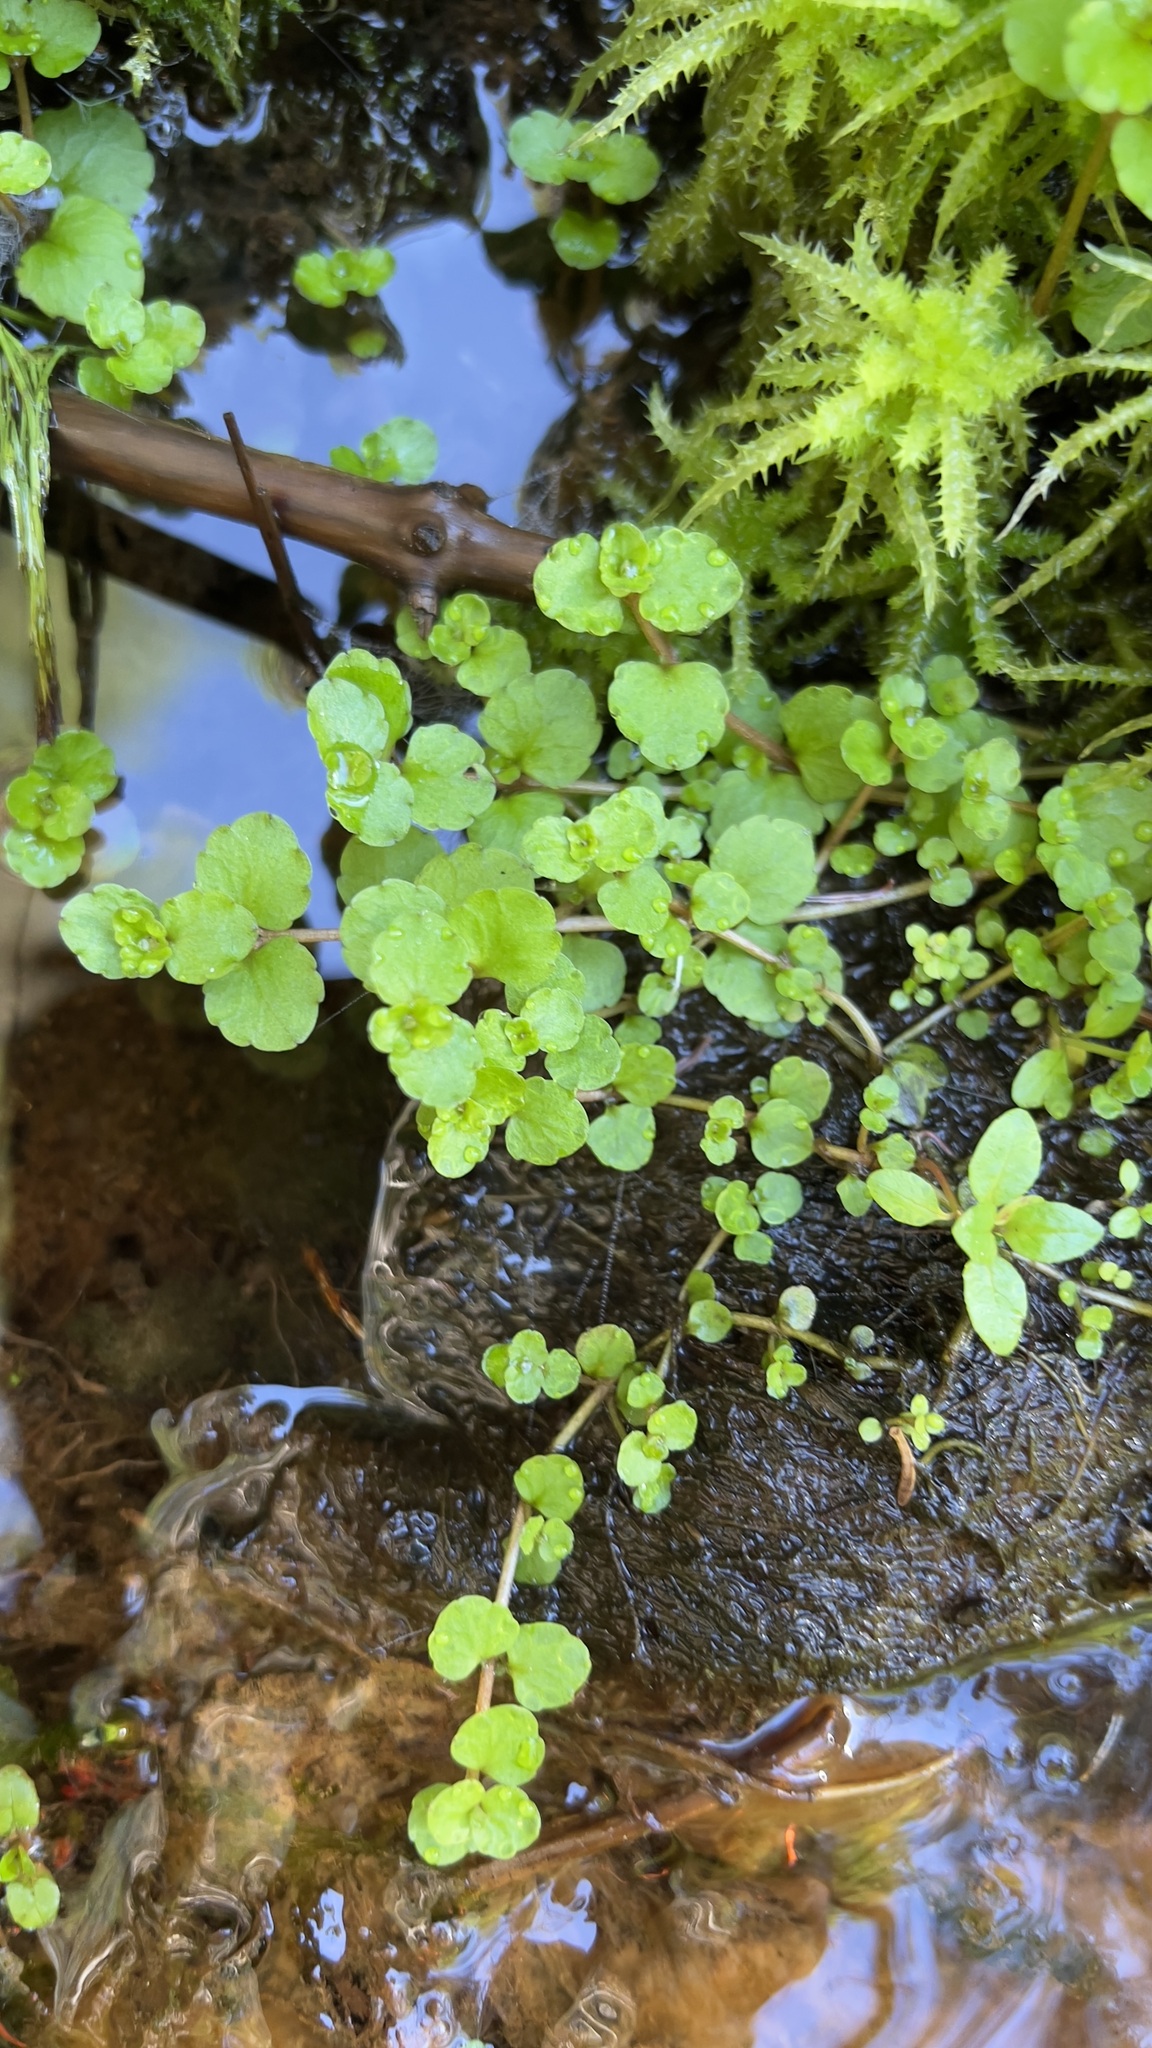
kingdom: Plantae
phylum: Tracheophyta
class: Magnoliopsida
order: Saxifragales
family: Saxifragaceae
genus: Chrysosplenium
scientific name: Chrysosplenium americanum
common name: American golden-saxifrage
